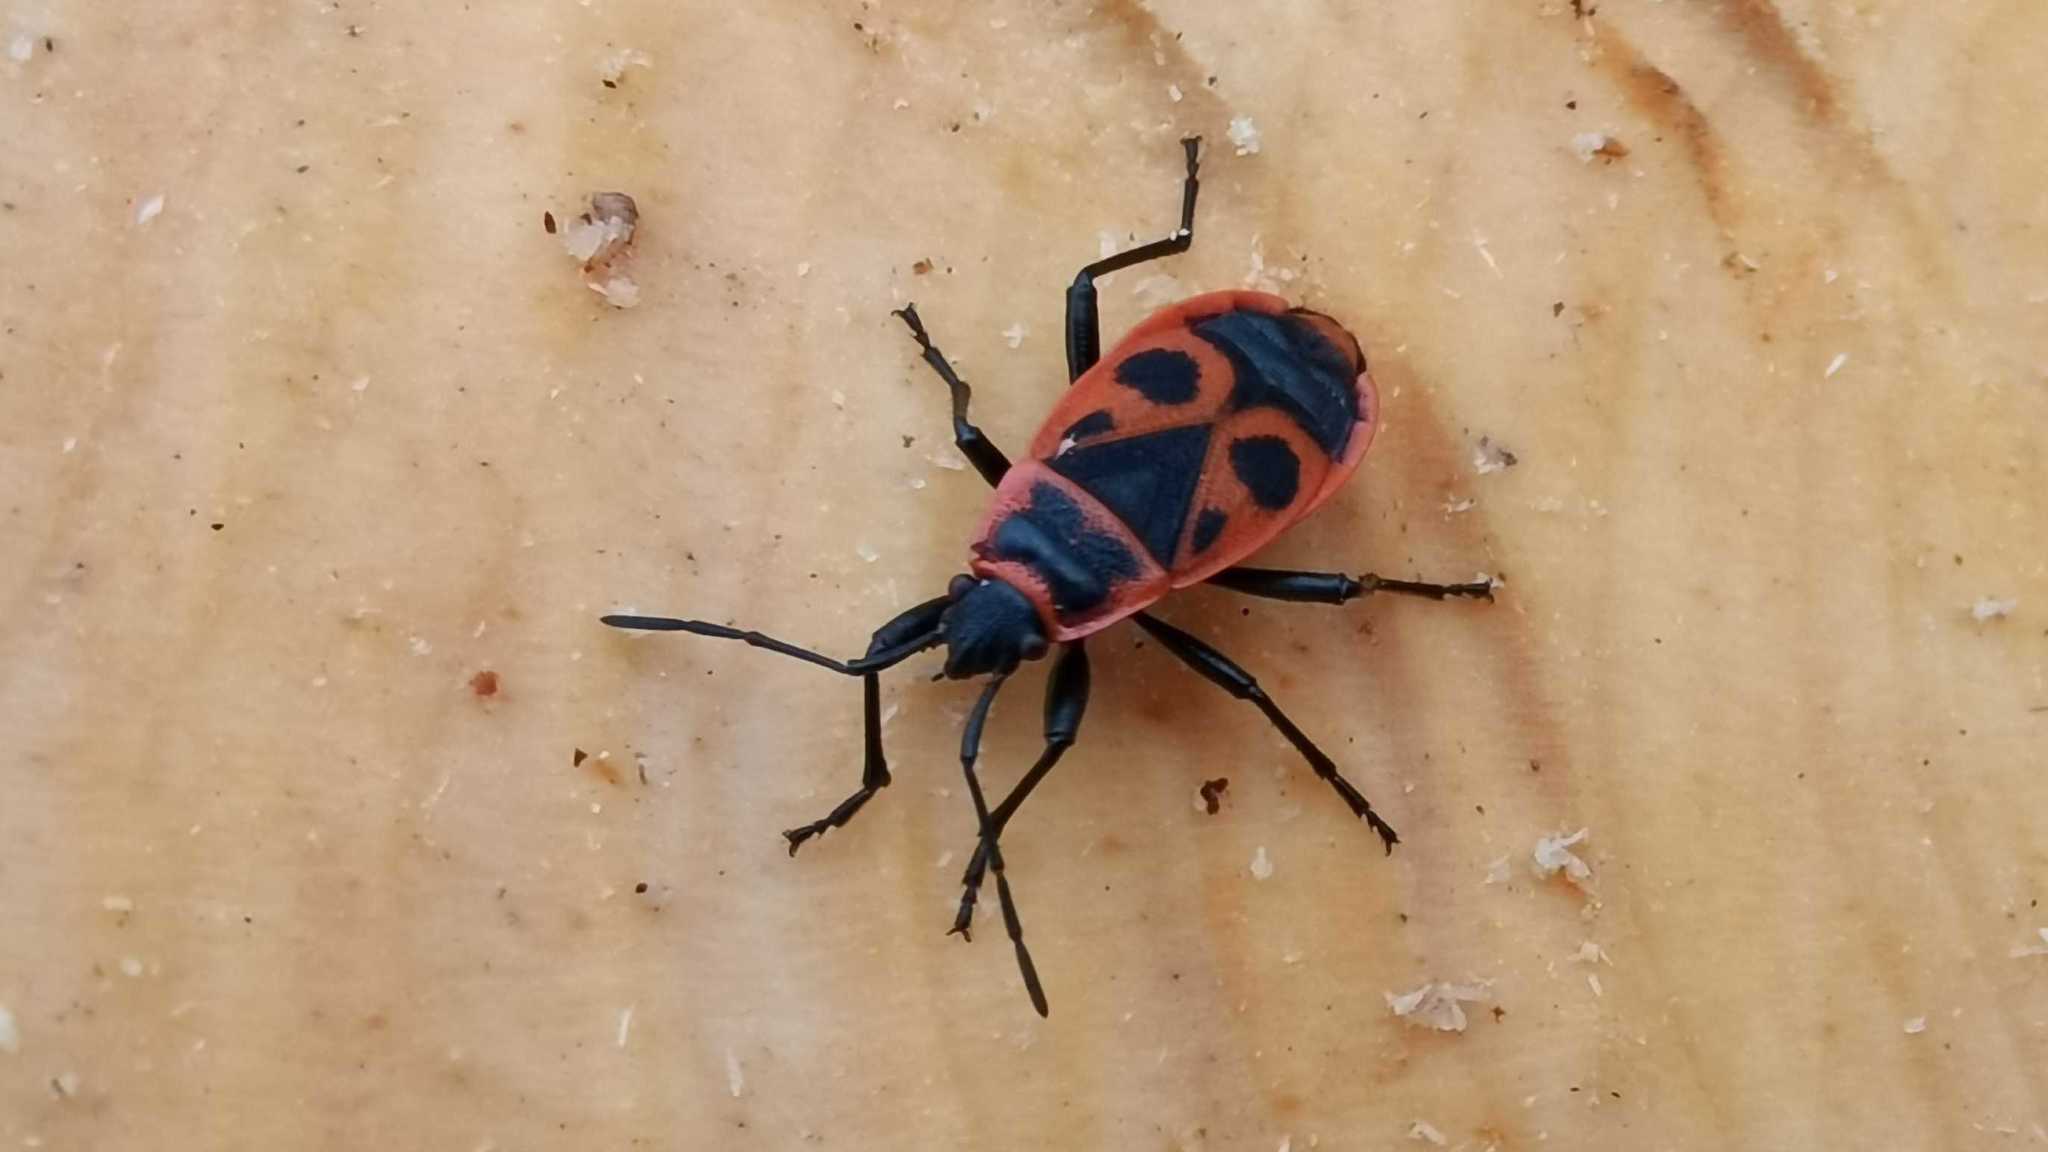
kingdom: Animalia
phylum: Arthropoda
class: Insecta
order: Hemiptera
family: Pyrrhocoridae
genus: Pyrrhocoris
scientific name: Pyrrhocoris apterus
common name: Firebug
